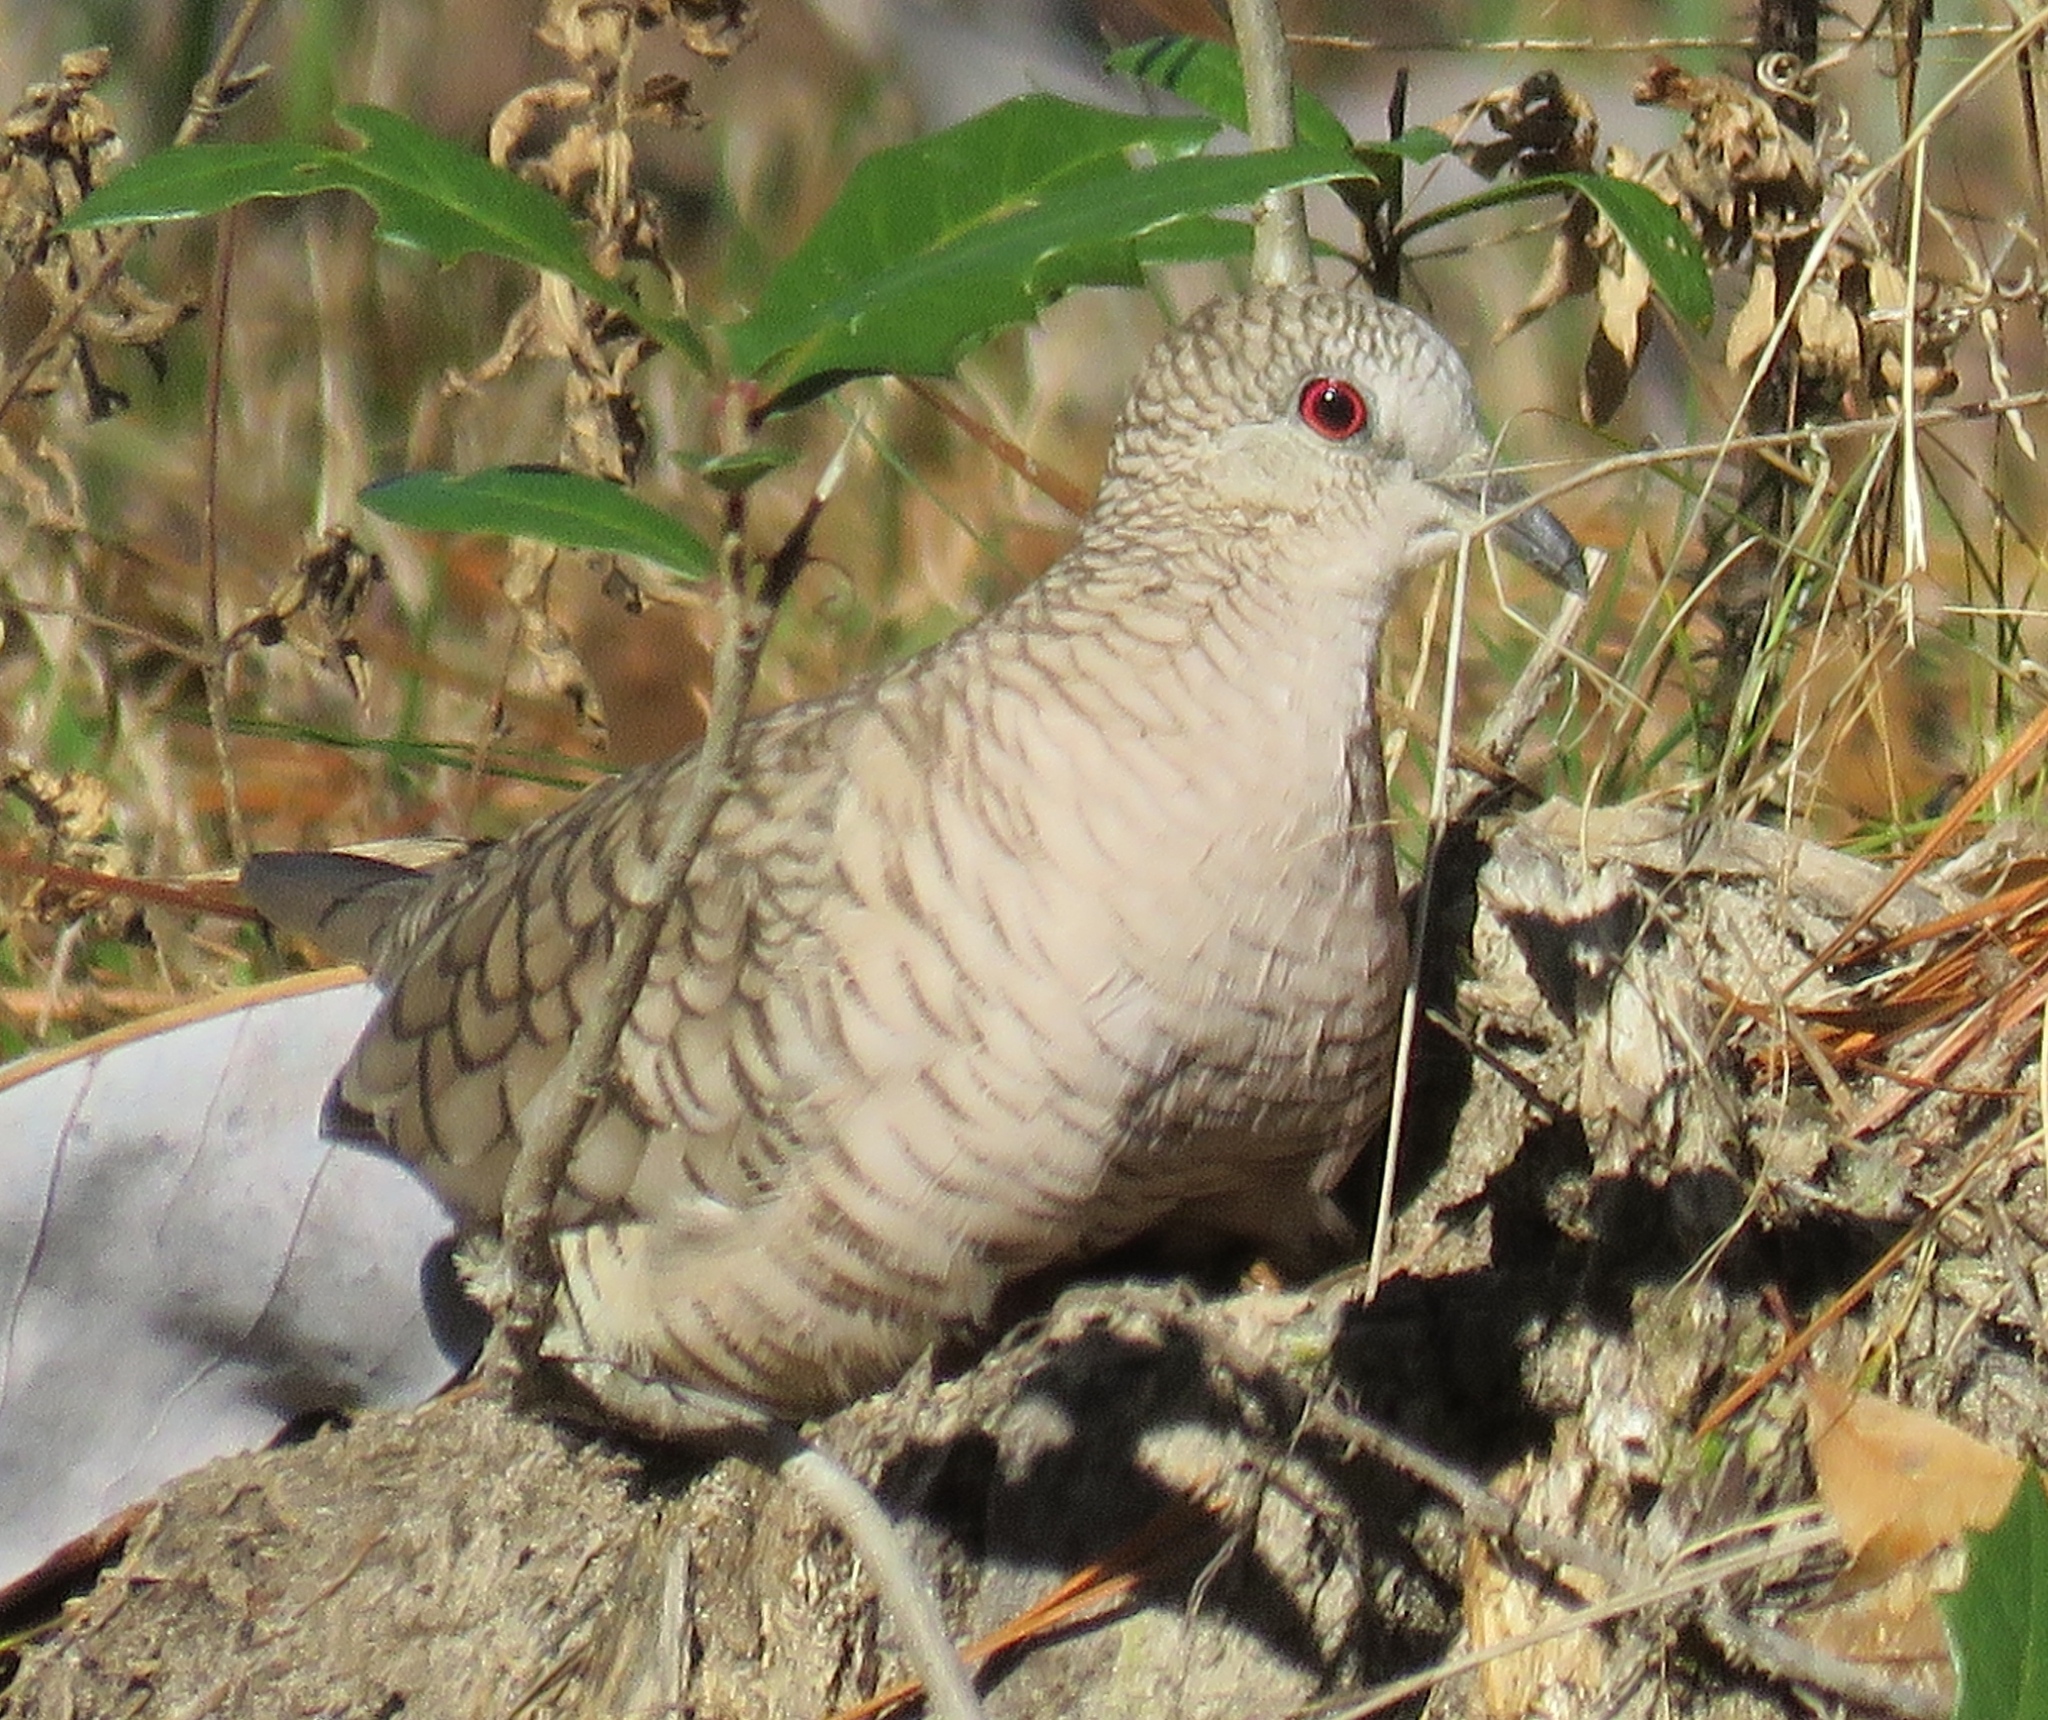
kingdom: Animalia
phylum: Chordata
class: Aves
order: Columbiformes
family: Columbidae
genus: Columbina
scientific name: Columbina inca
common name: Inca dove
